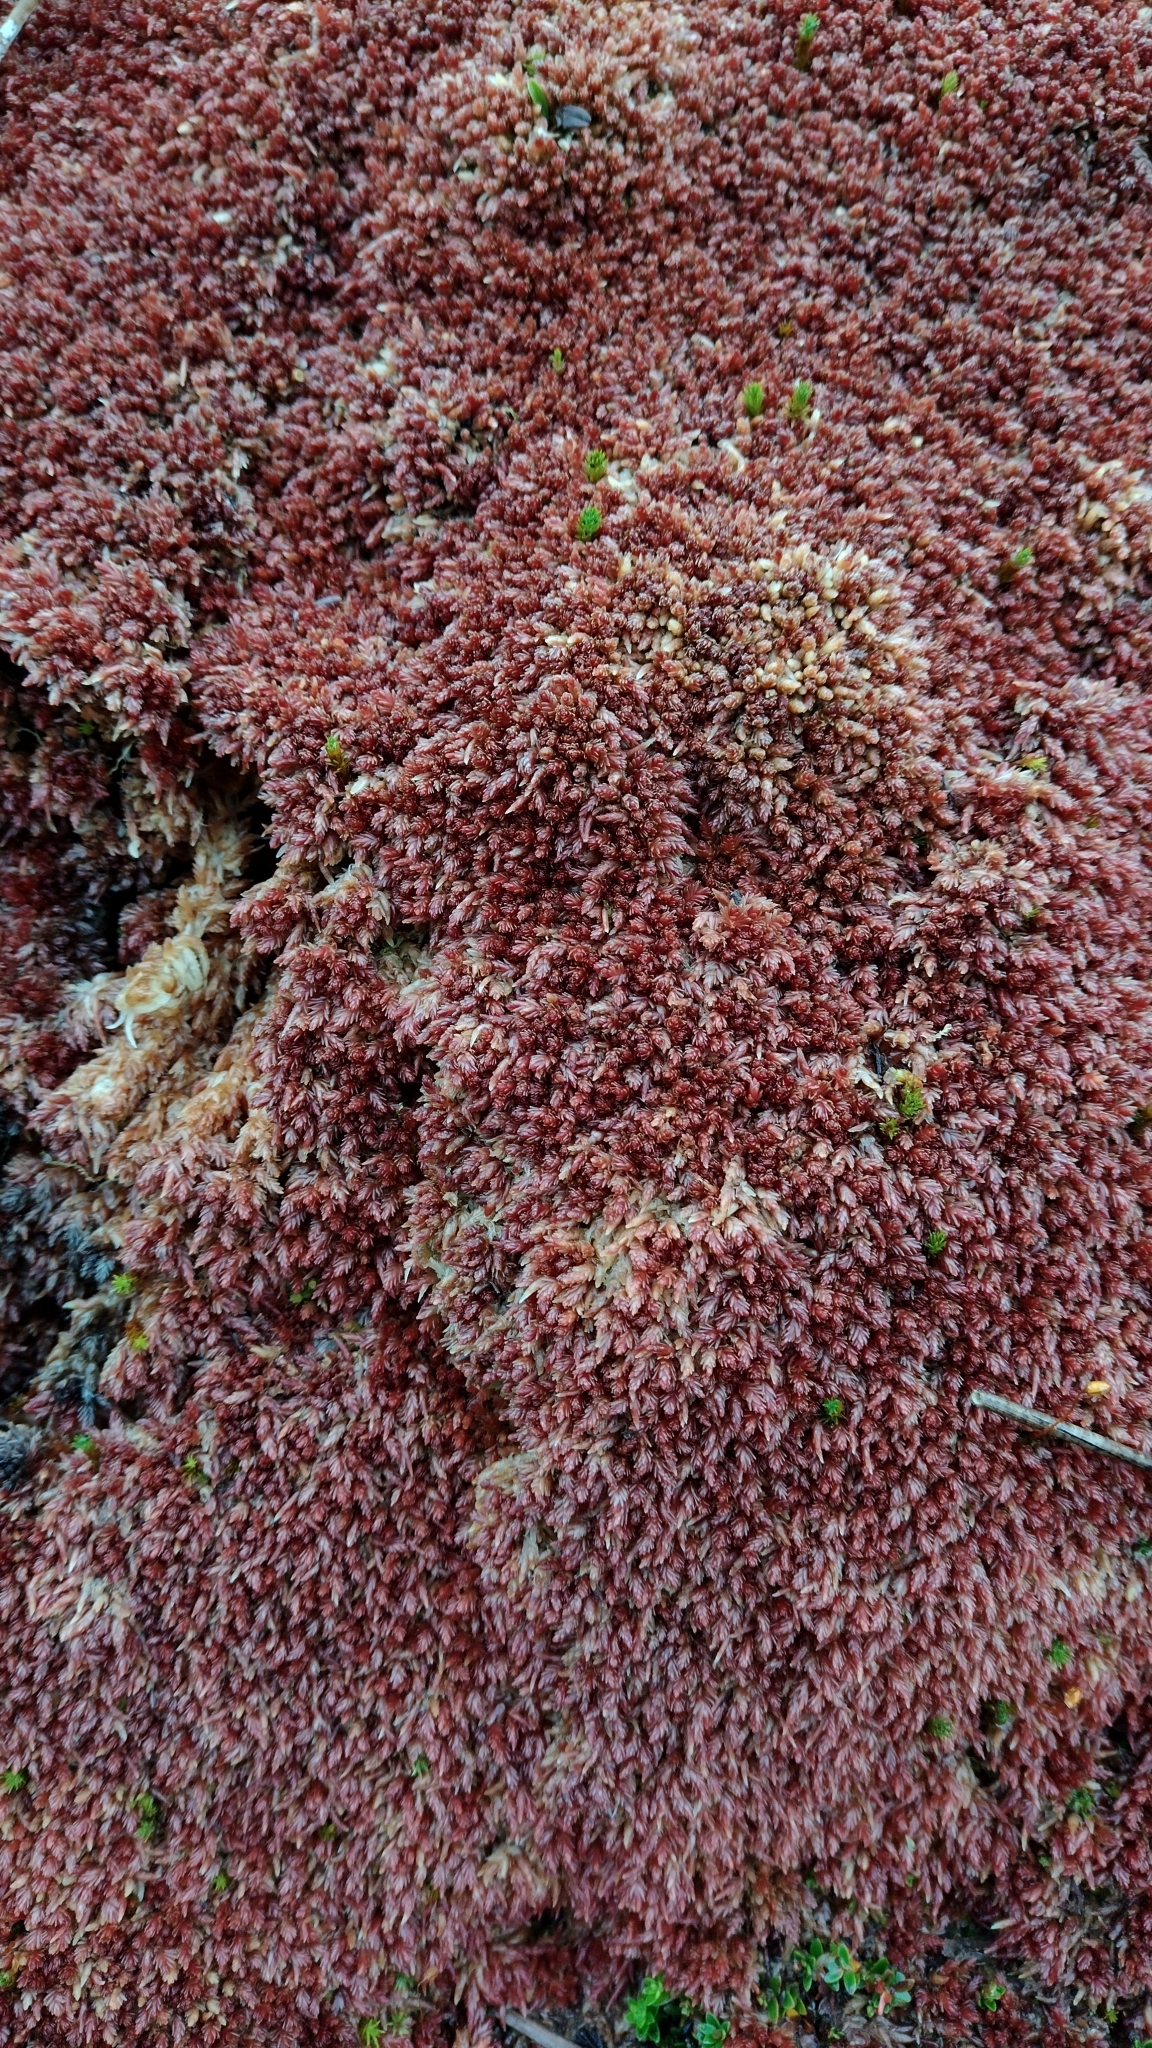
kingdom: Plantae
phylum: Bryophyta
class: Sphagnopsida
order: Sphagnales
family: Sphagnaceae
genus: Sphagnum
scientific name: Sphagnum magellanicum
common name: Magellan's peat moss
